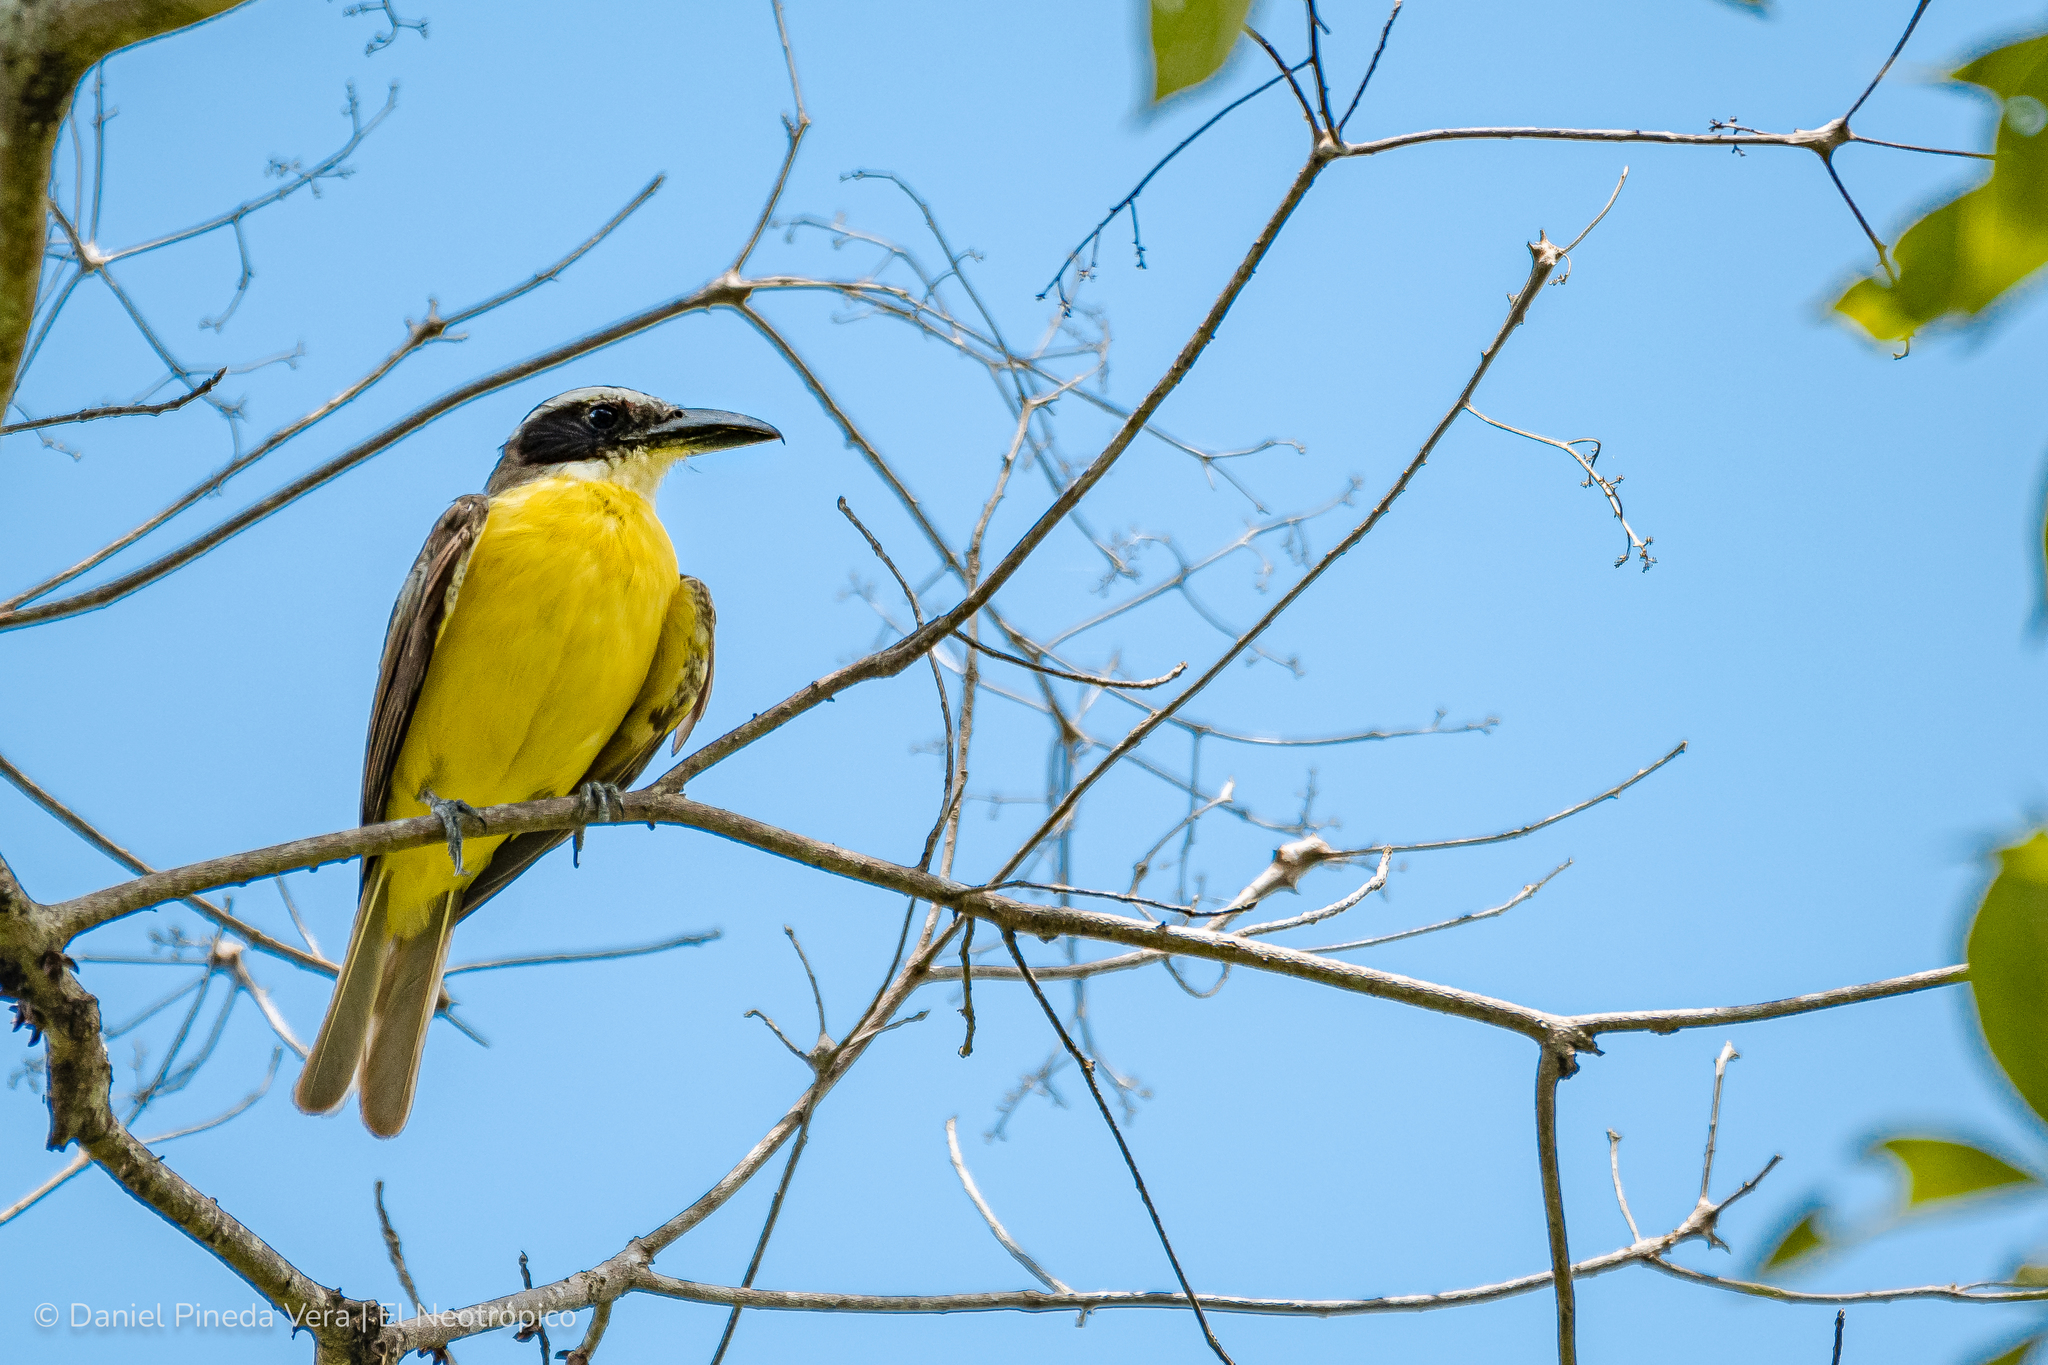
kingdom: Animalia
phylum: Chordata
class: Aves
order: Passeriformes
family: Tyrannidae
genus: Megarynchus
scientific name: Megarynchus pitangua
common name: Boat-billed flycatcher
